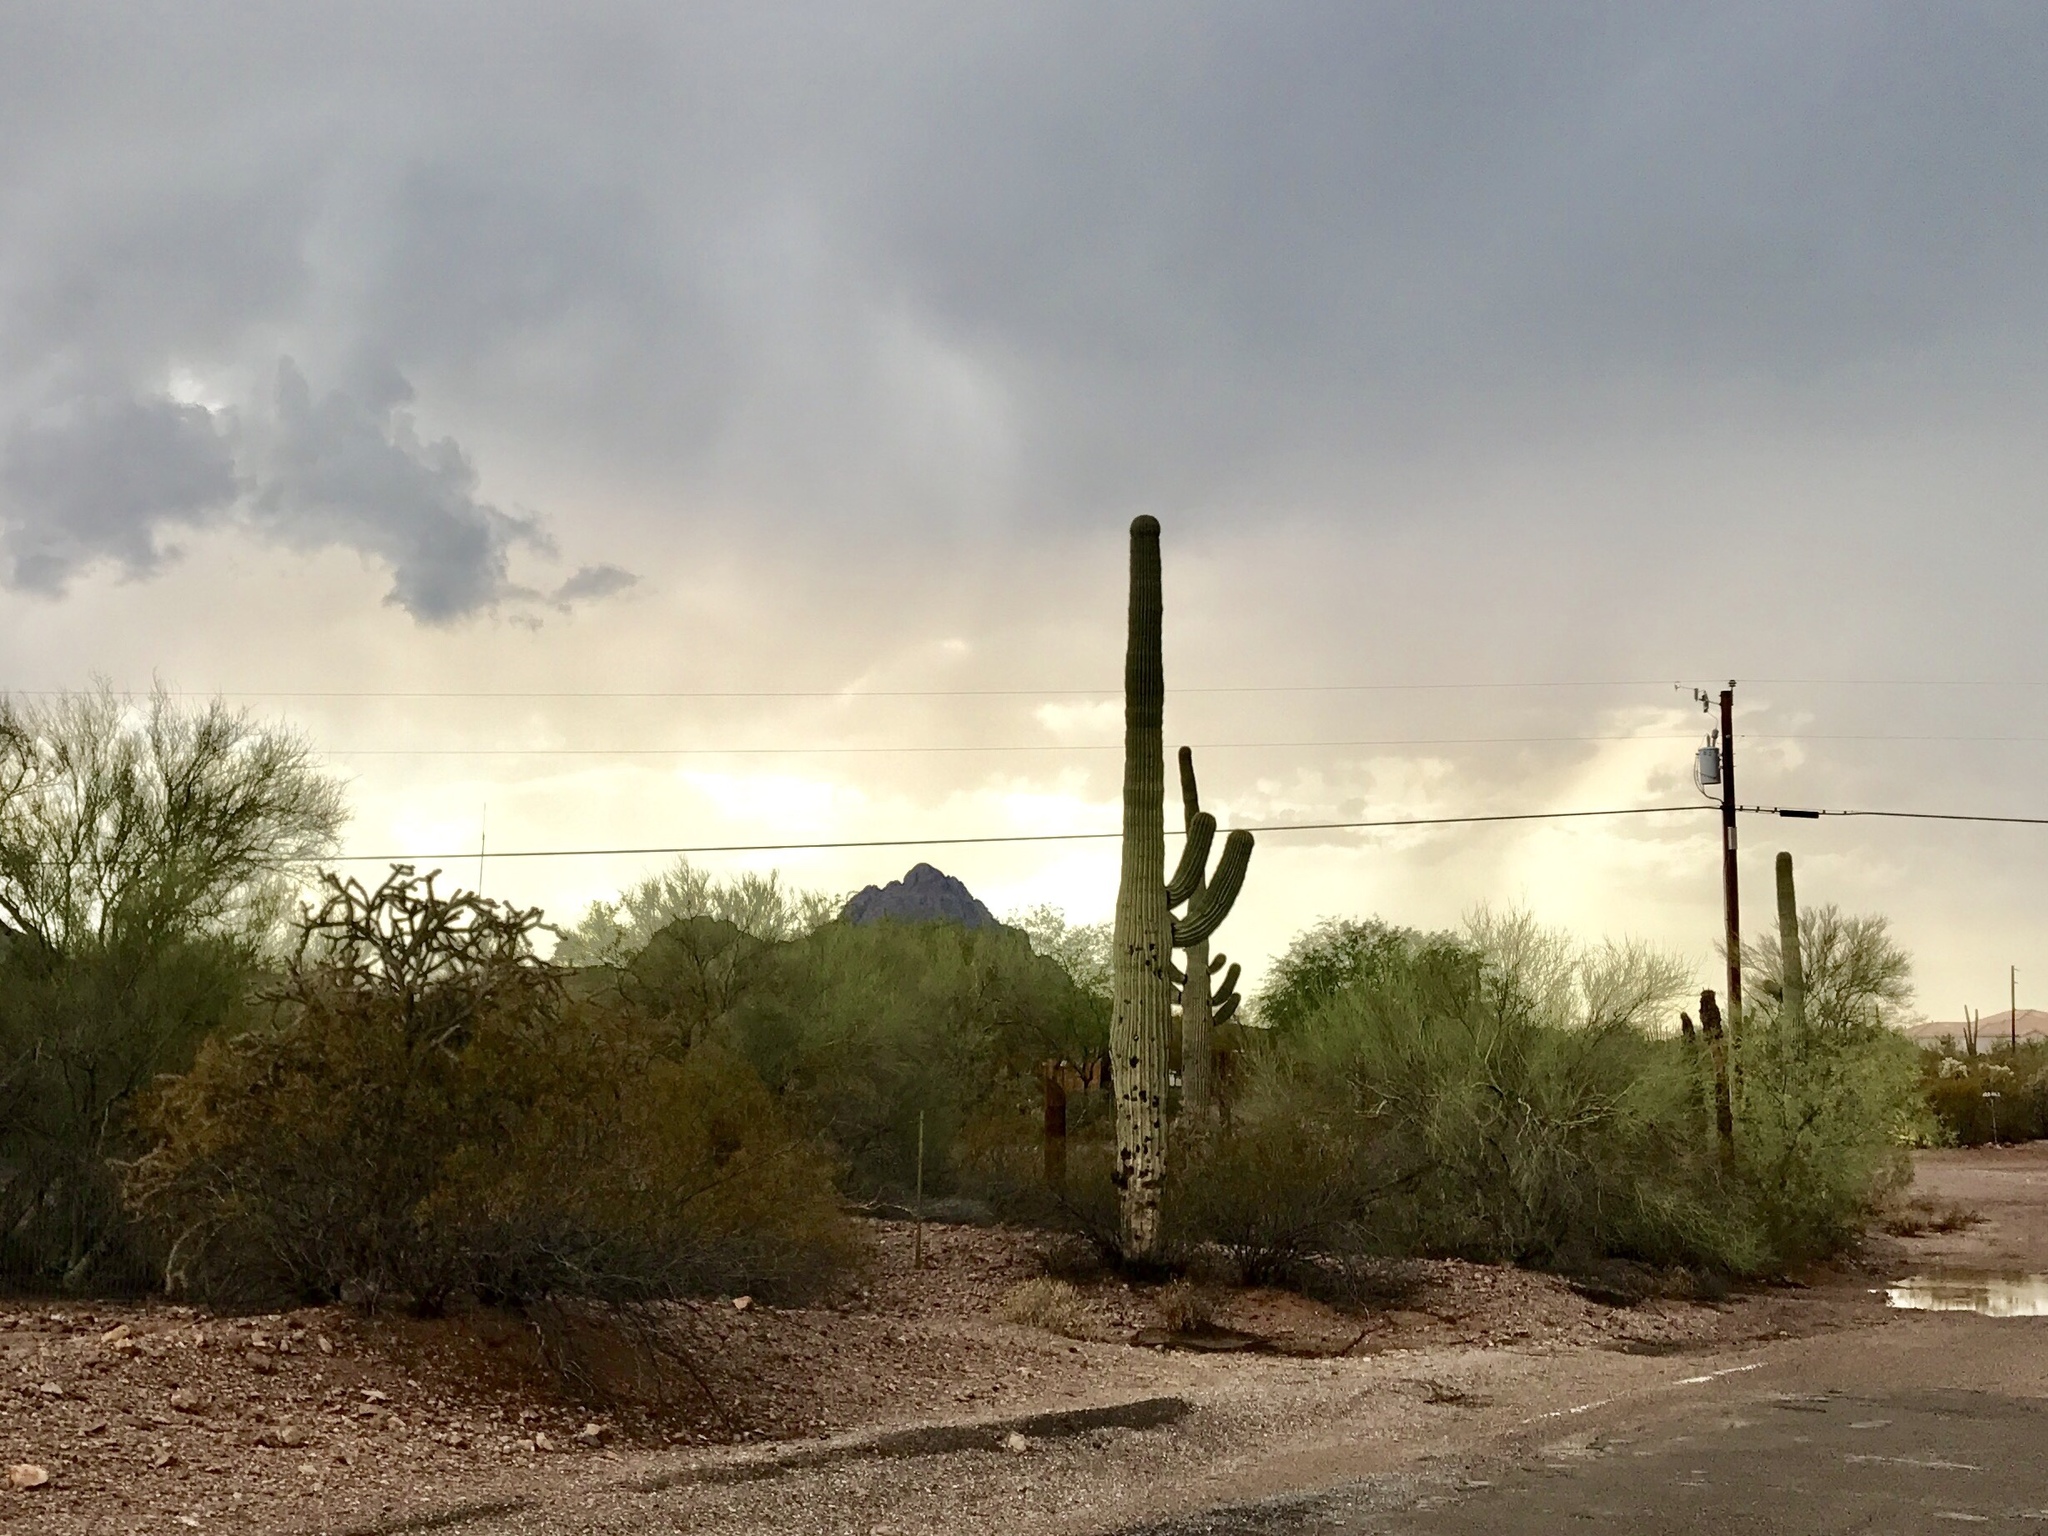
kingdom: Plantae
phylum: Tracheophyta
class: Magnoliopsida
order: Caryophyllales
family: Cactaceae
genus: Carnegiea
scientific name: Carnegiea gigantea
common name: Saguaro
